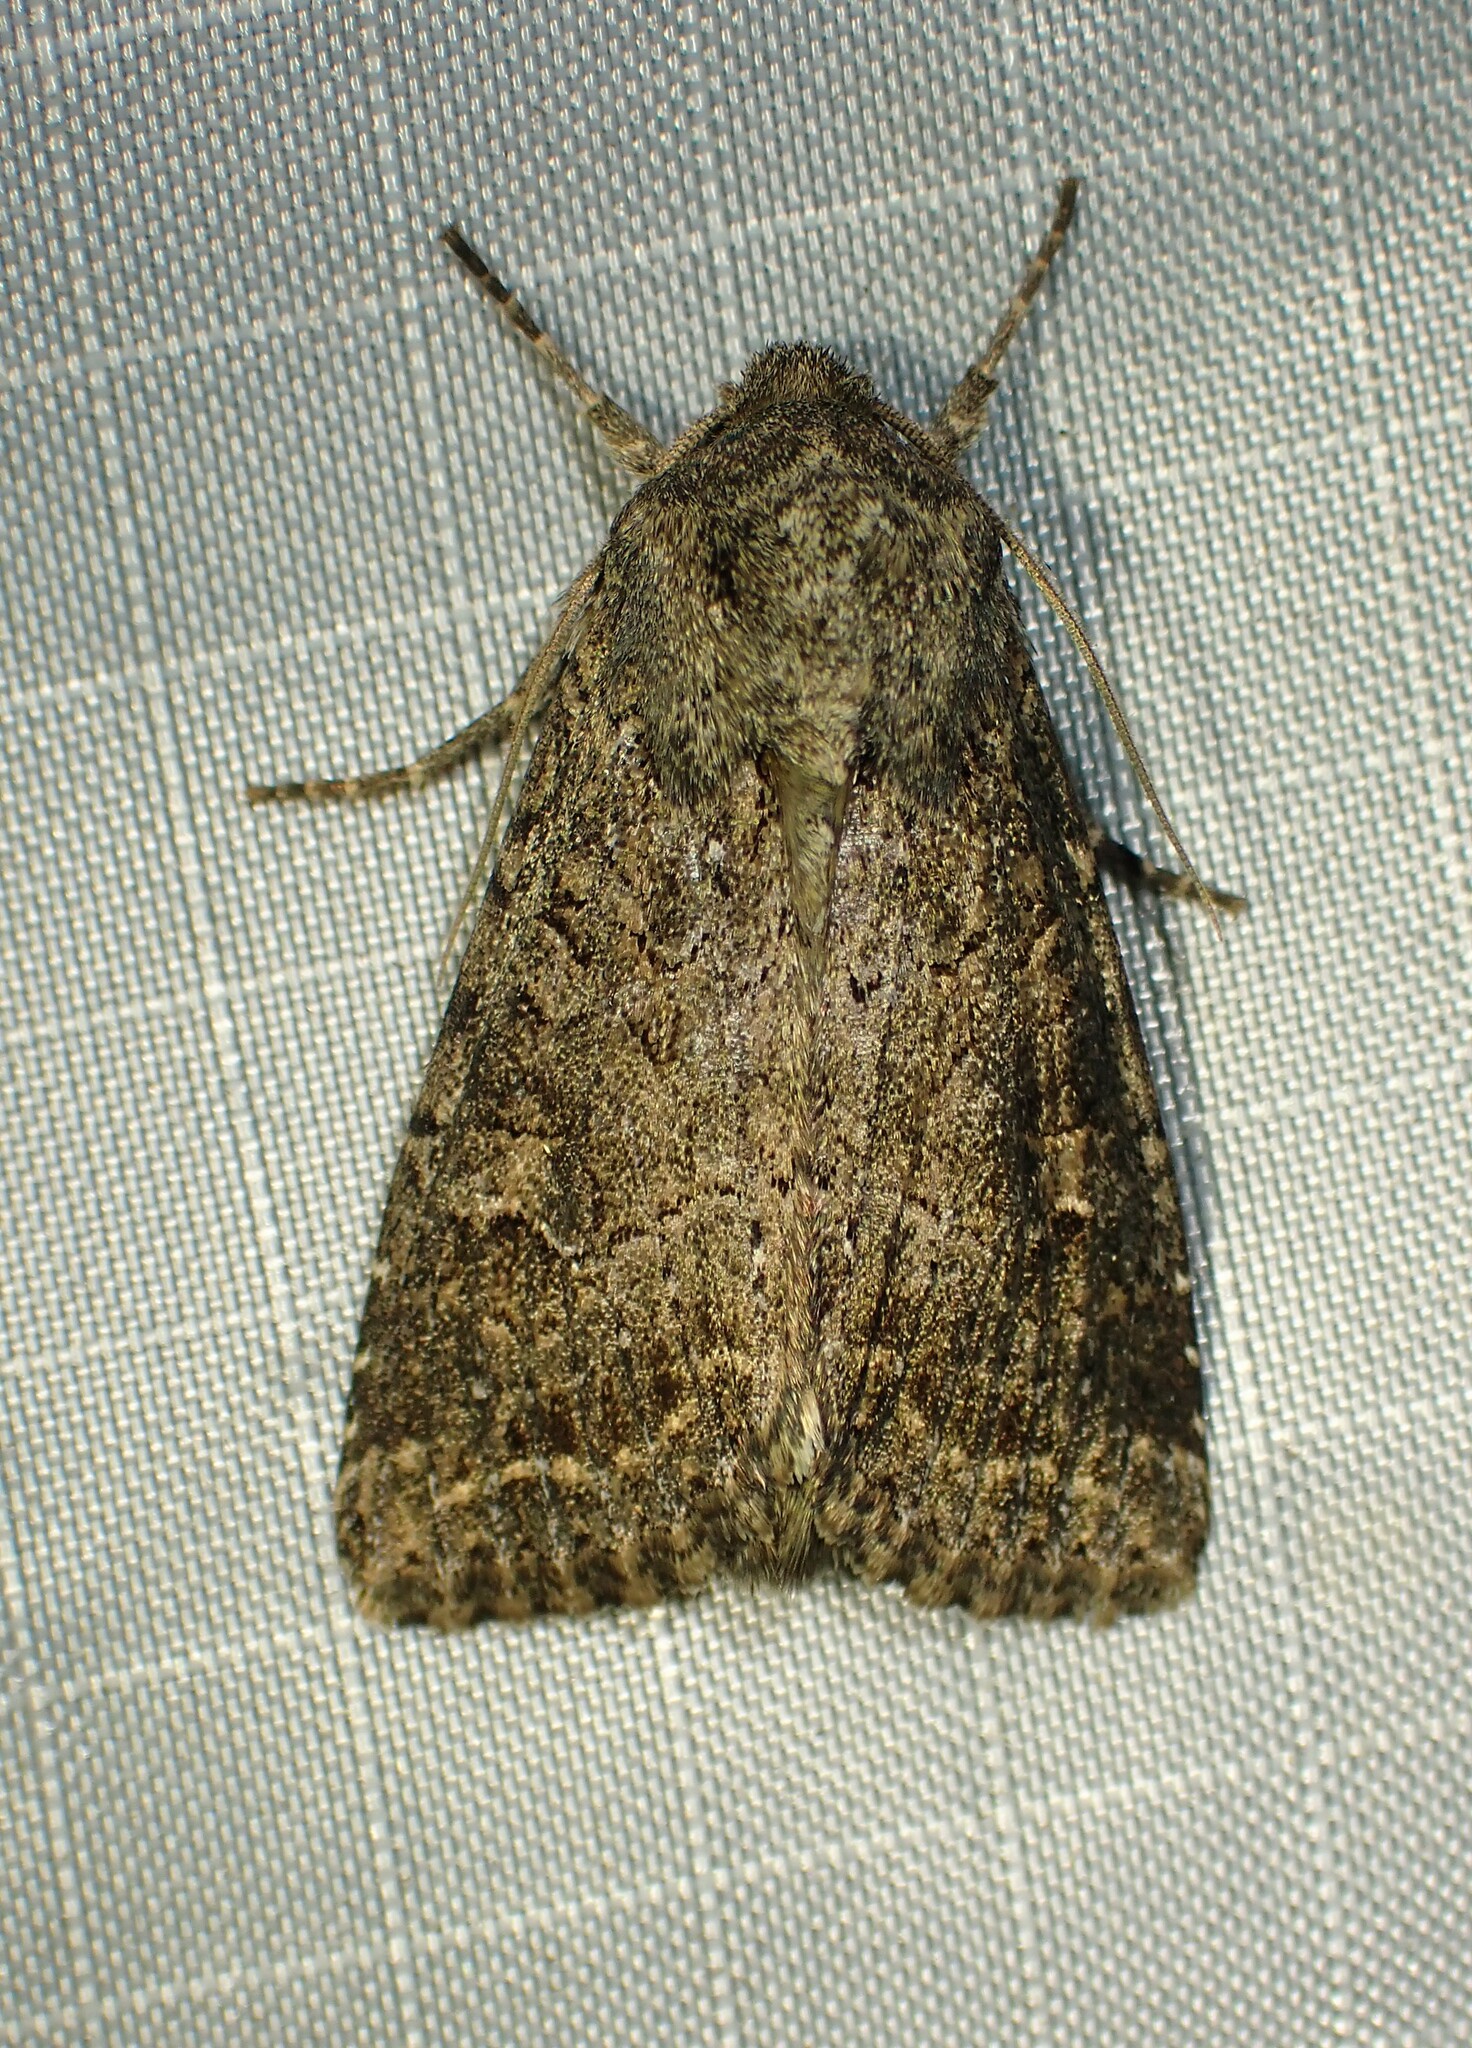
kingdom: Animalia
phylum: Arthropoda
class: Insecta
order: Lepidoptera
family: Noctuidae
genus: Apamea
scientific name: Apamea devastator
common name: Glassy cutworm
